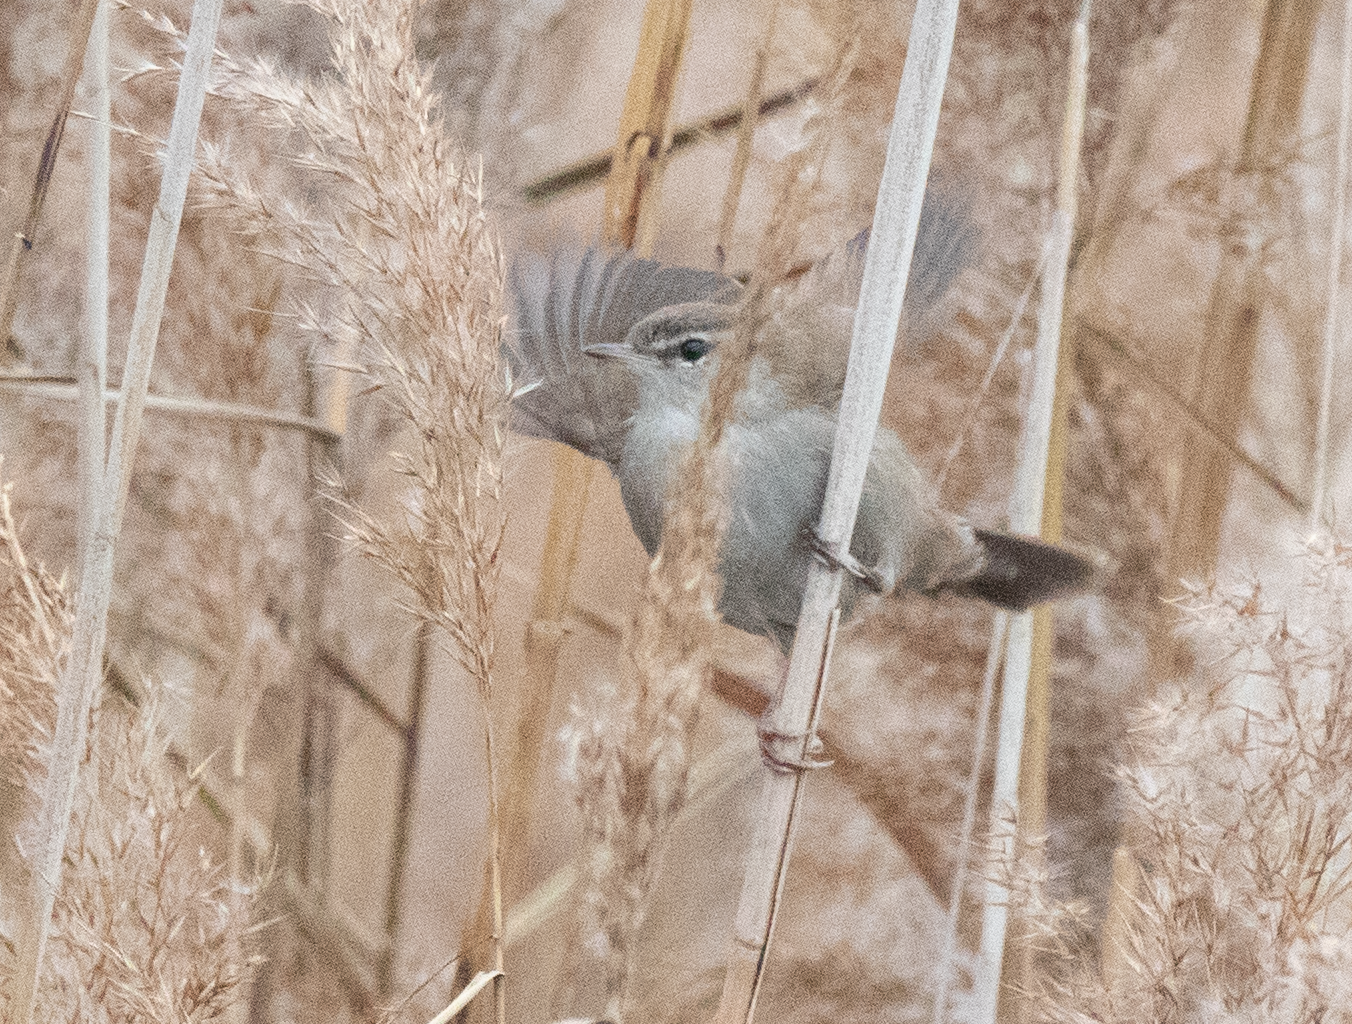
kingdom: Animalia
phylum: Chordata
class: Aves
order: Passeriformes
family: Cettiidae
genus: Cettia
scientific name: Cettia cetti
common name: Cetti's warbler
